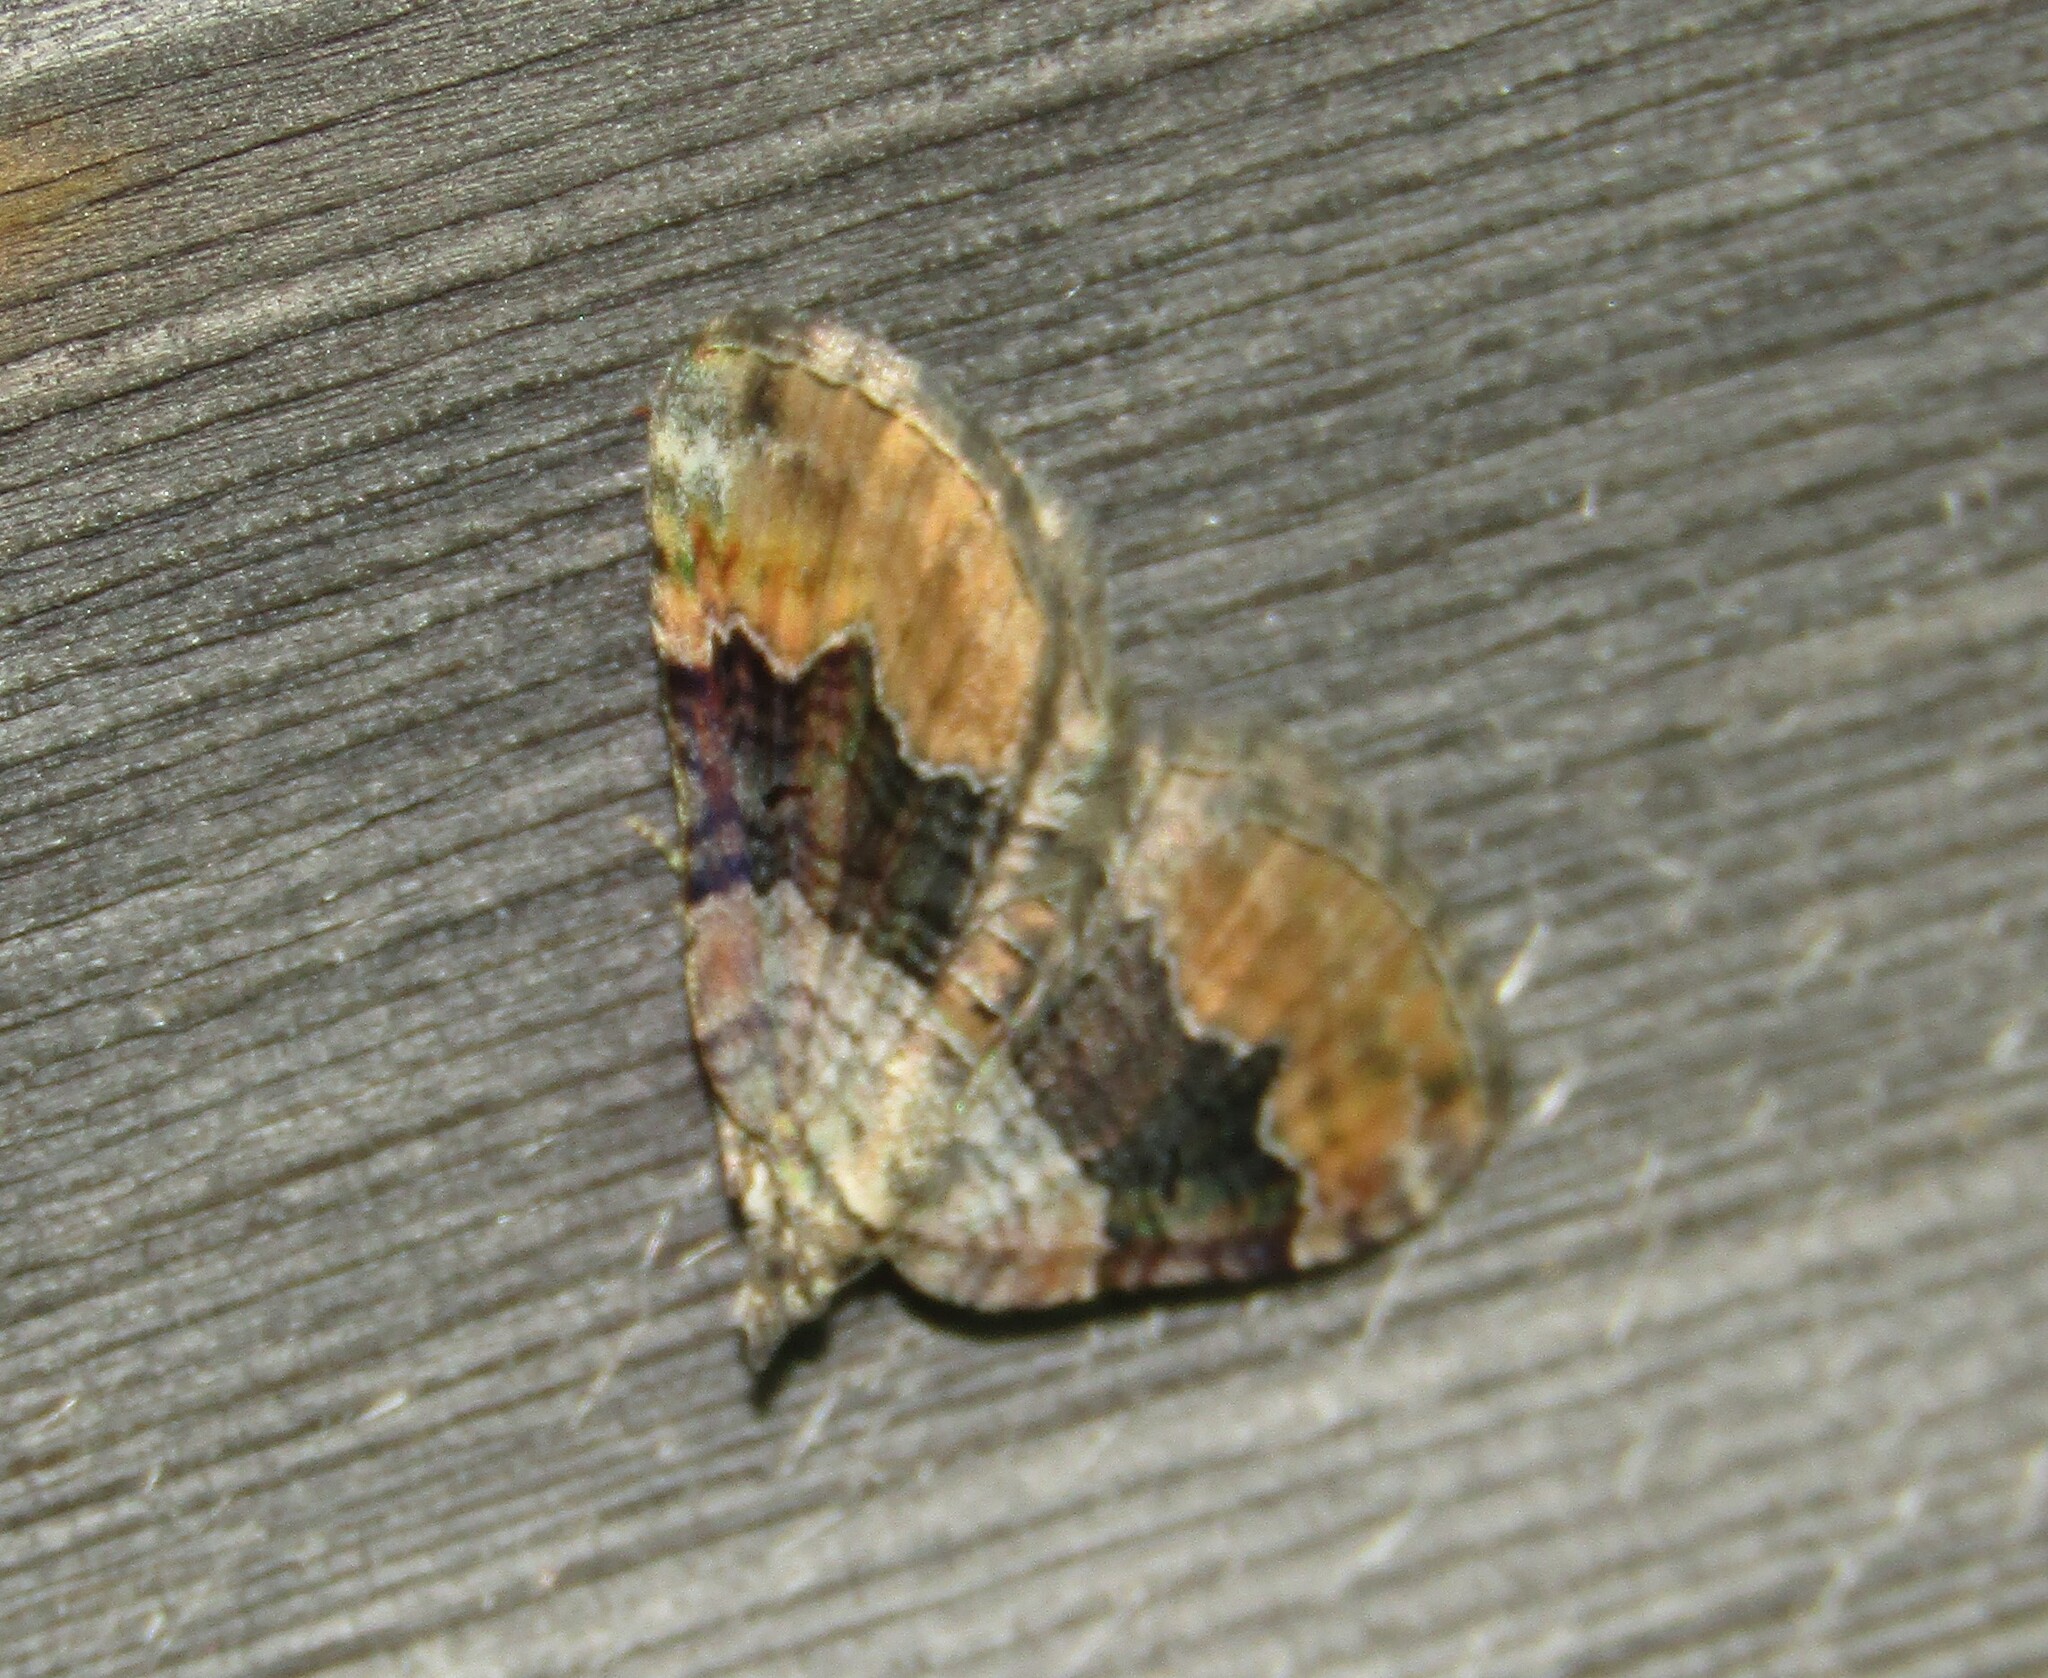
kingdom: Animalia
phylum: Arthropoda
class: Insecta
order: Lepidoptera
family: Geometridae
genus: Xanthorhoe
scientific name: Xanthorhoe quadrifasiata
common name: Large twin-spot carpet
